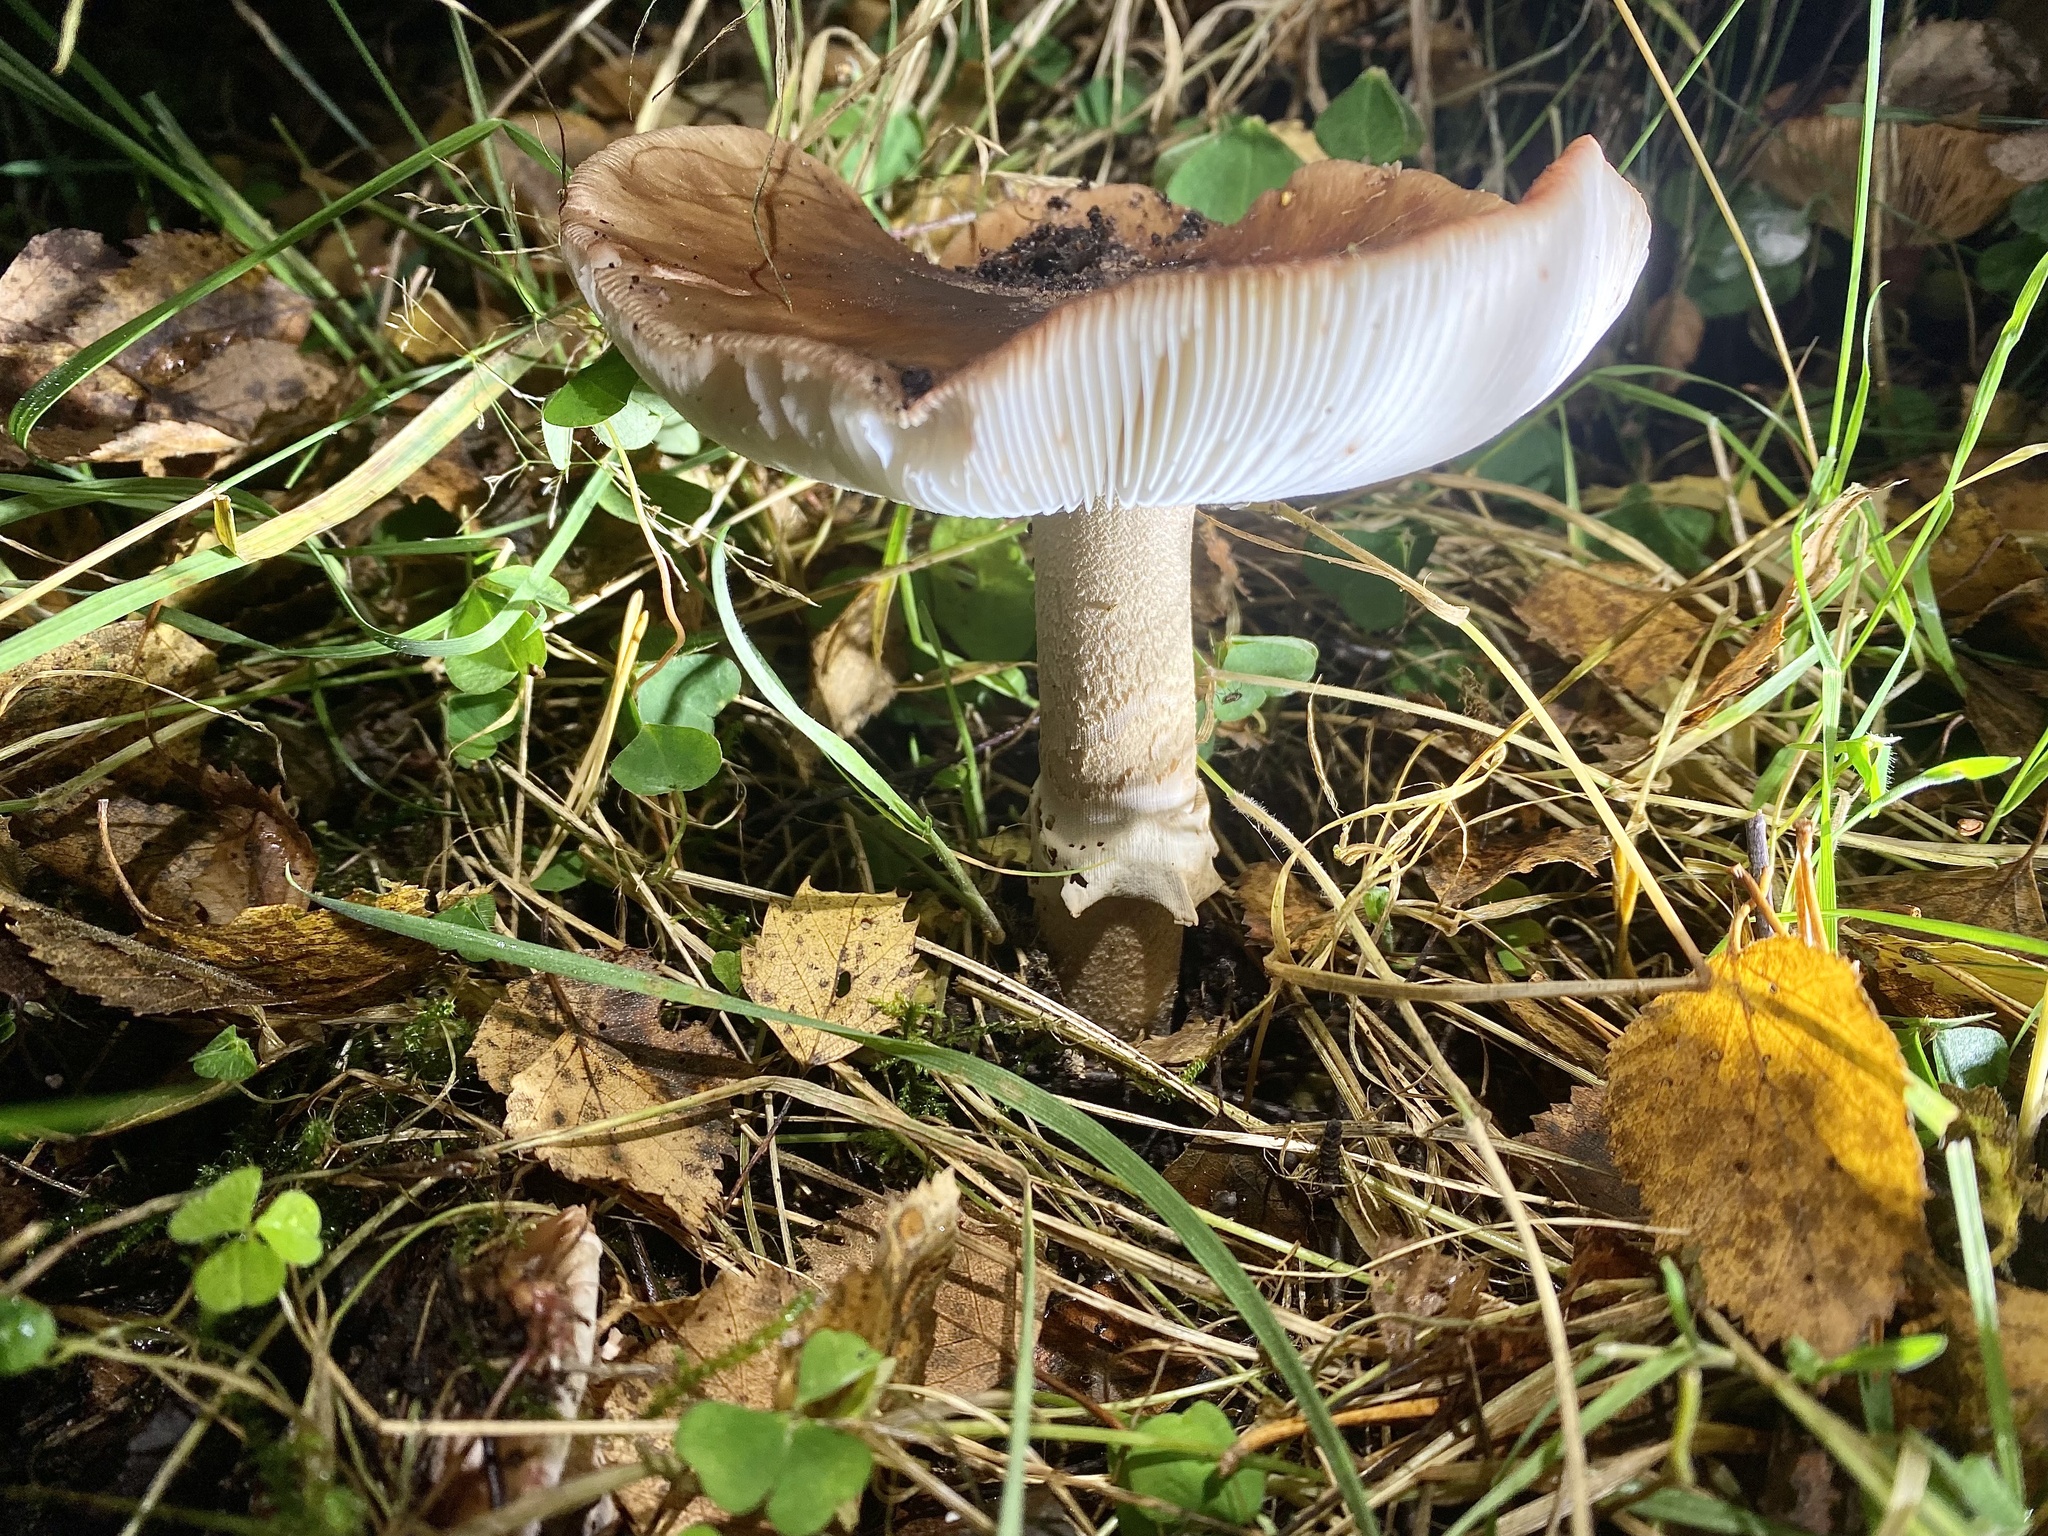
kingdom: Fungi
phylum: Basidiomycota
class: Agaricomycetes
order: Agaricales
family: Amanitaceae
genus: Amanita
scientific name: Amanita rubescens
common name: Blusher
